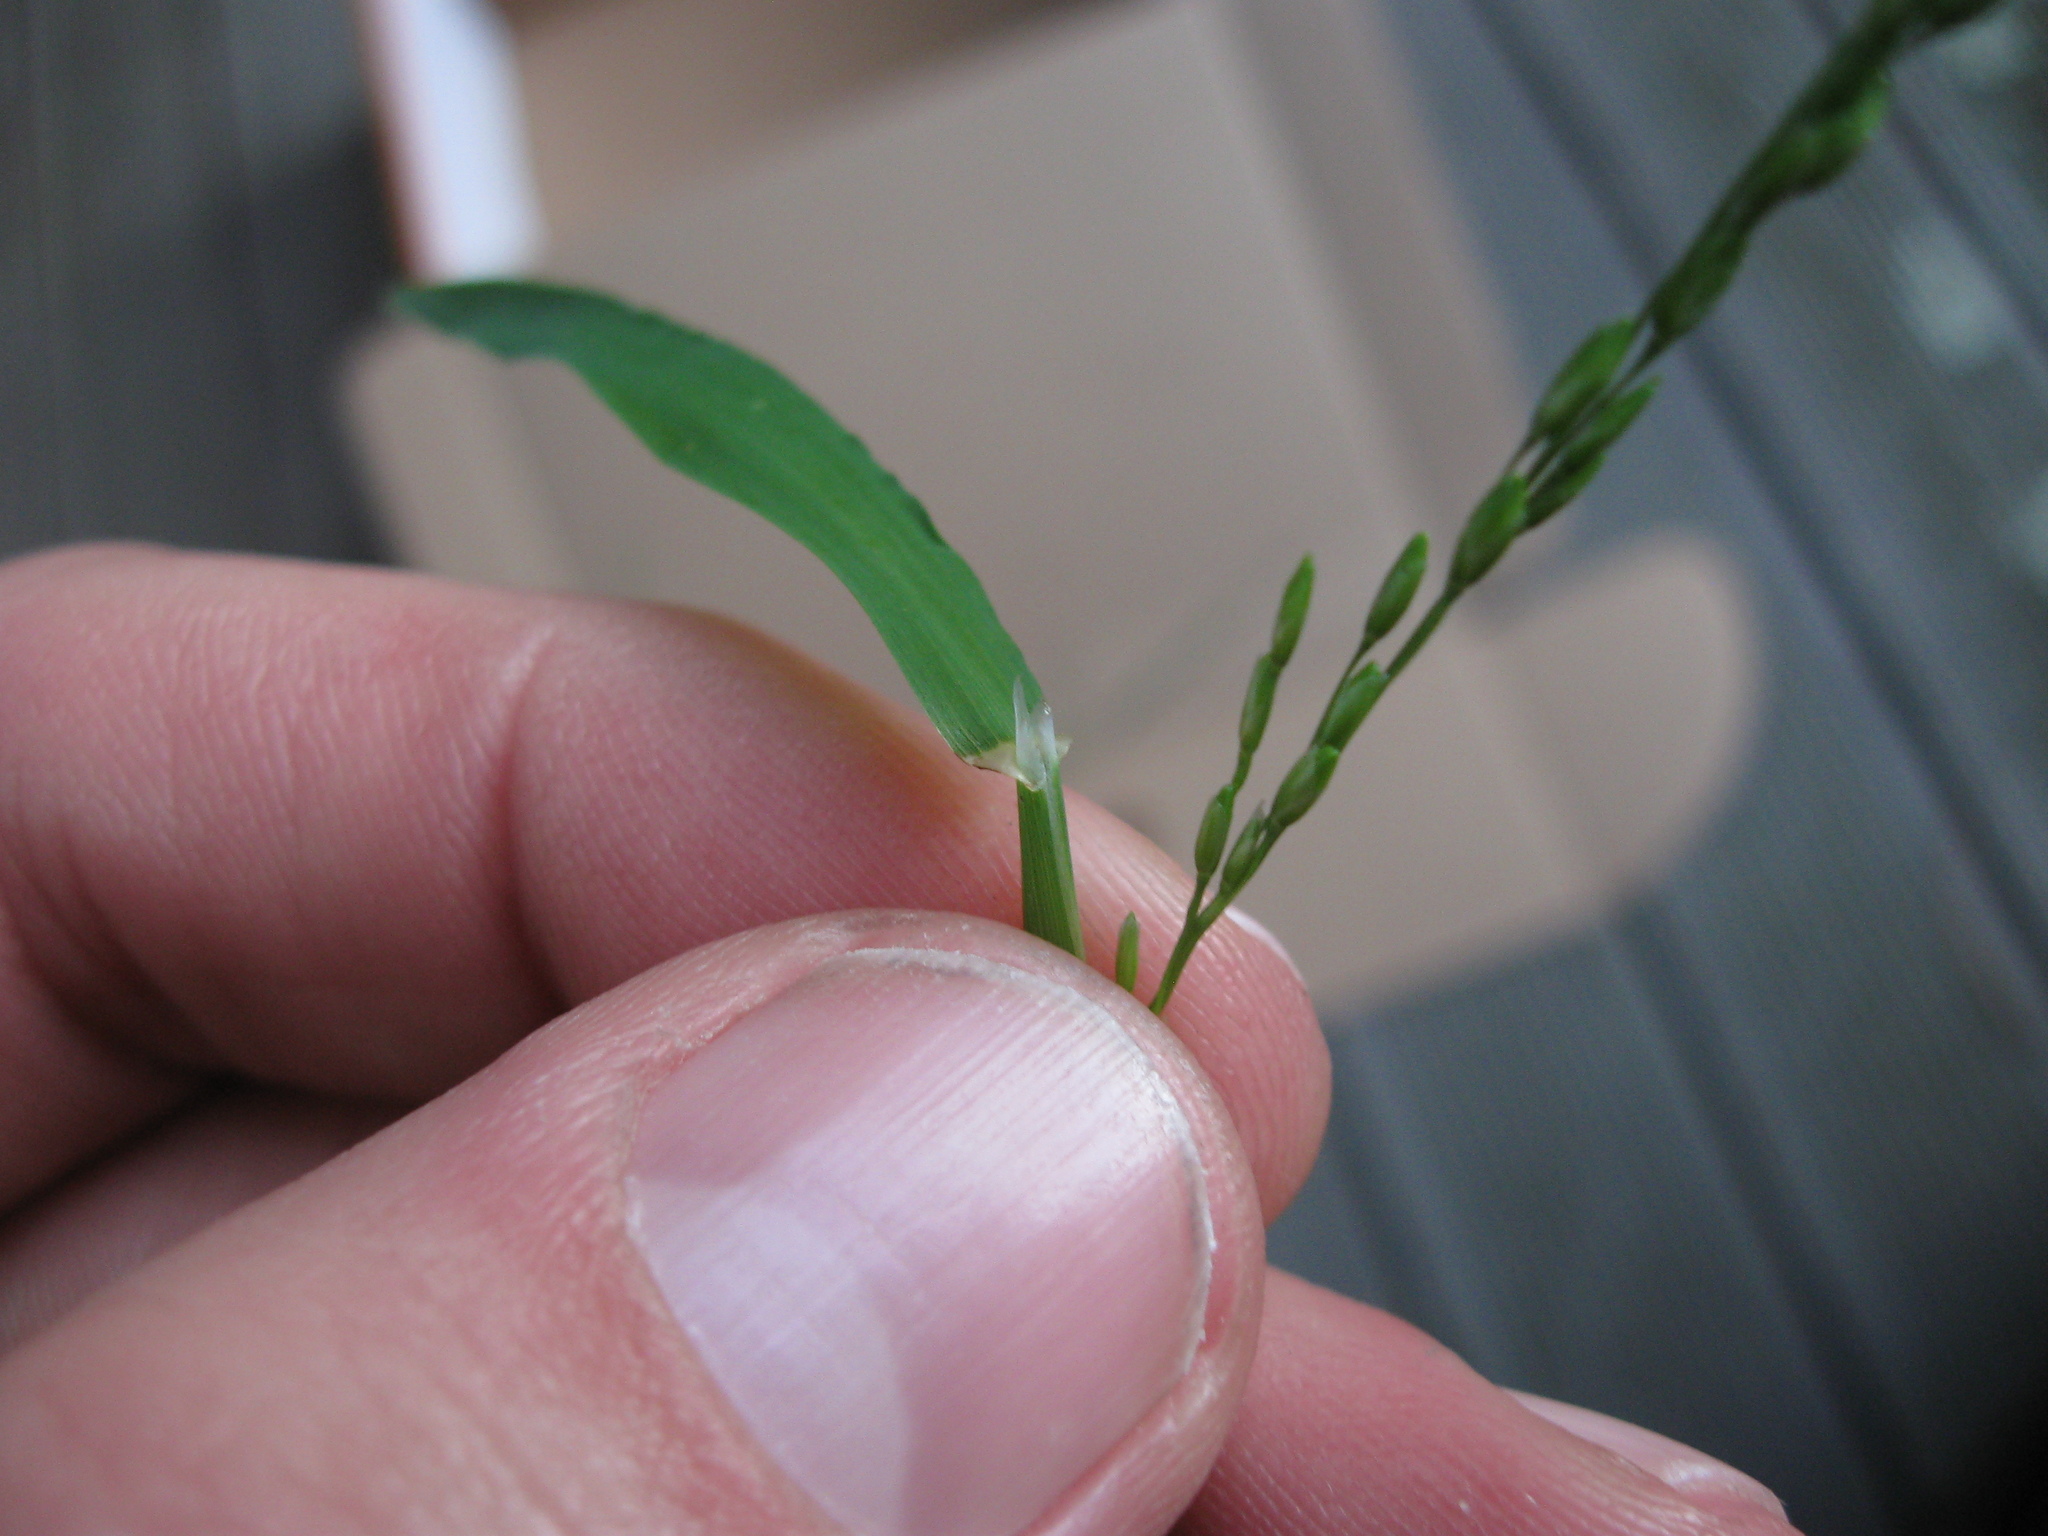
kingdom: Plantae
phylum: Tracheophyta
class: Liliopsida
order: Poales
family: Poaceae
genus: Ehrharta
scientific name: Ehrharta erecta
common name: Panic veldtgrass
